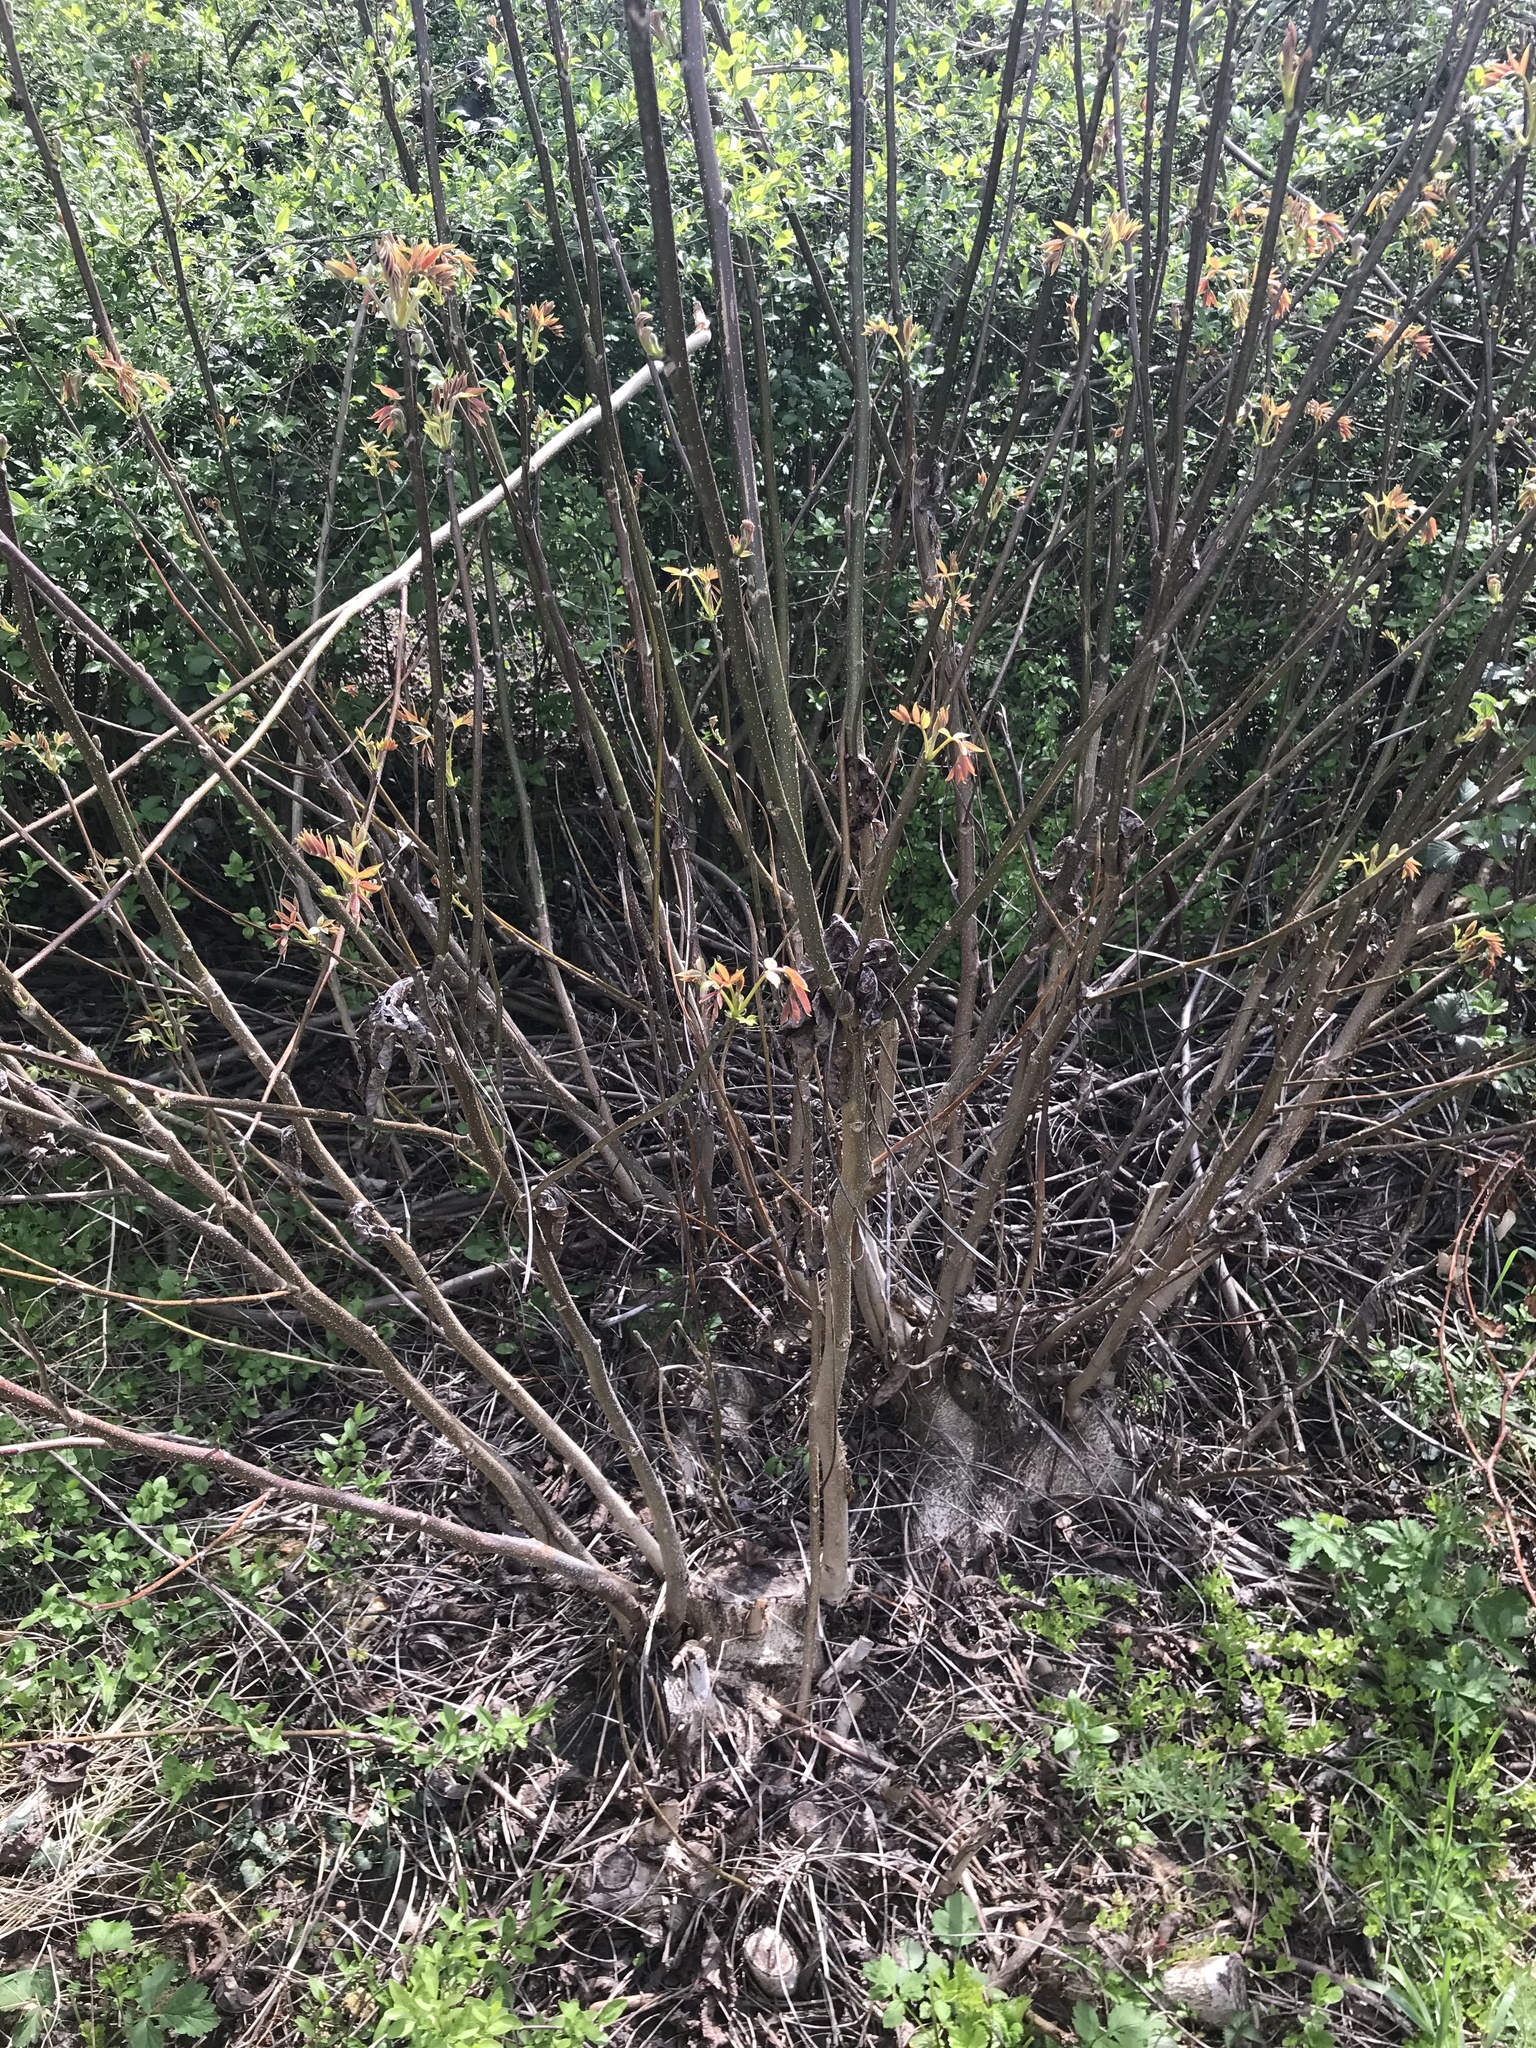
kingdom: Plantae
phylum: Tracheophyta
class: Magnoliopsida
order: Fagales
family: Juglandaceae
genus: Juglans
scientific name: Juglans regia
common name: Walnut
